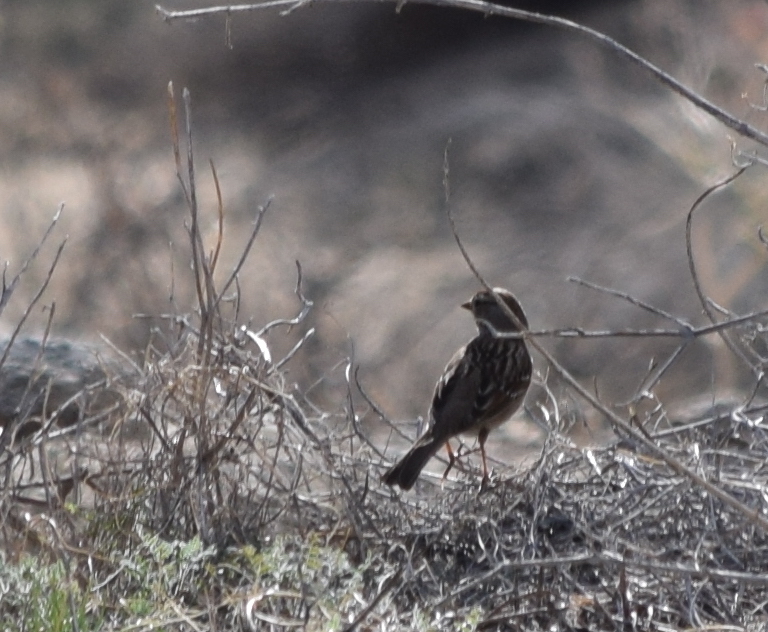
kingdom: Animalia
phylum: Chordata
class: Aves
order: Passeriformes
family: Passerellidae
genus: Zonotrichia
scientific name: Zonotrichia leucophrys
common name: White-crowned sparrow
